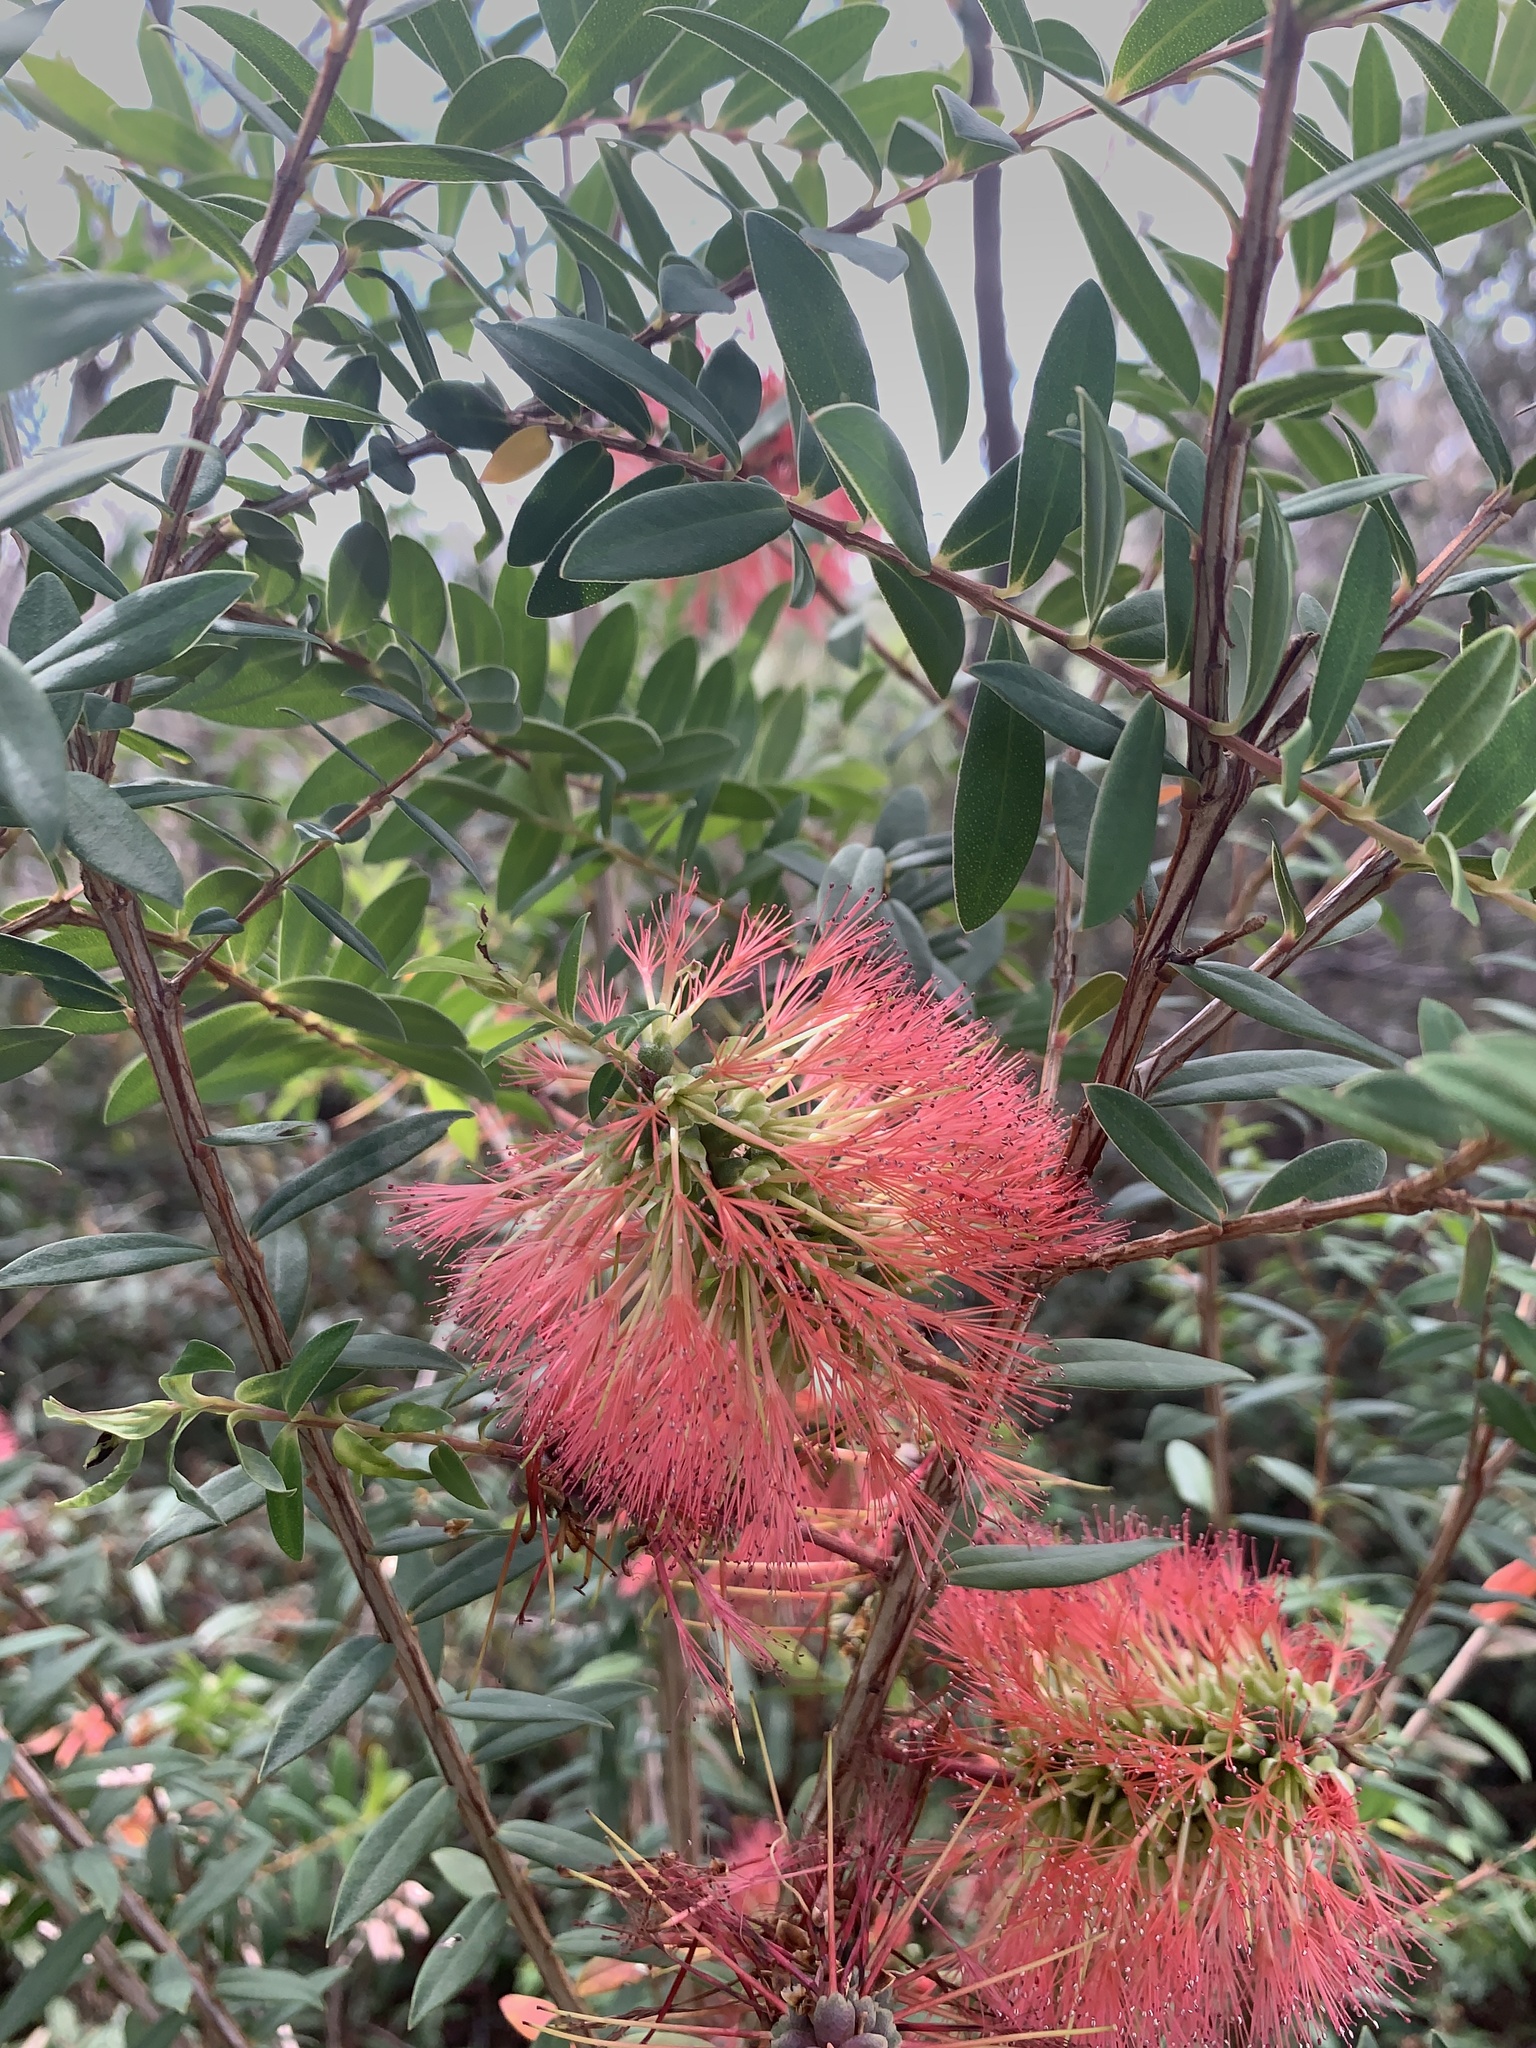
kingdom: Plantae
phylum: Tracheophyta
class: Magnoliopsida
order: Myrtales
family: Myrtaceae
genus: Melaleuca
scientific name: Melaleuca hypericifolia
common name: Red honey myrtle
